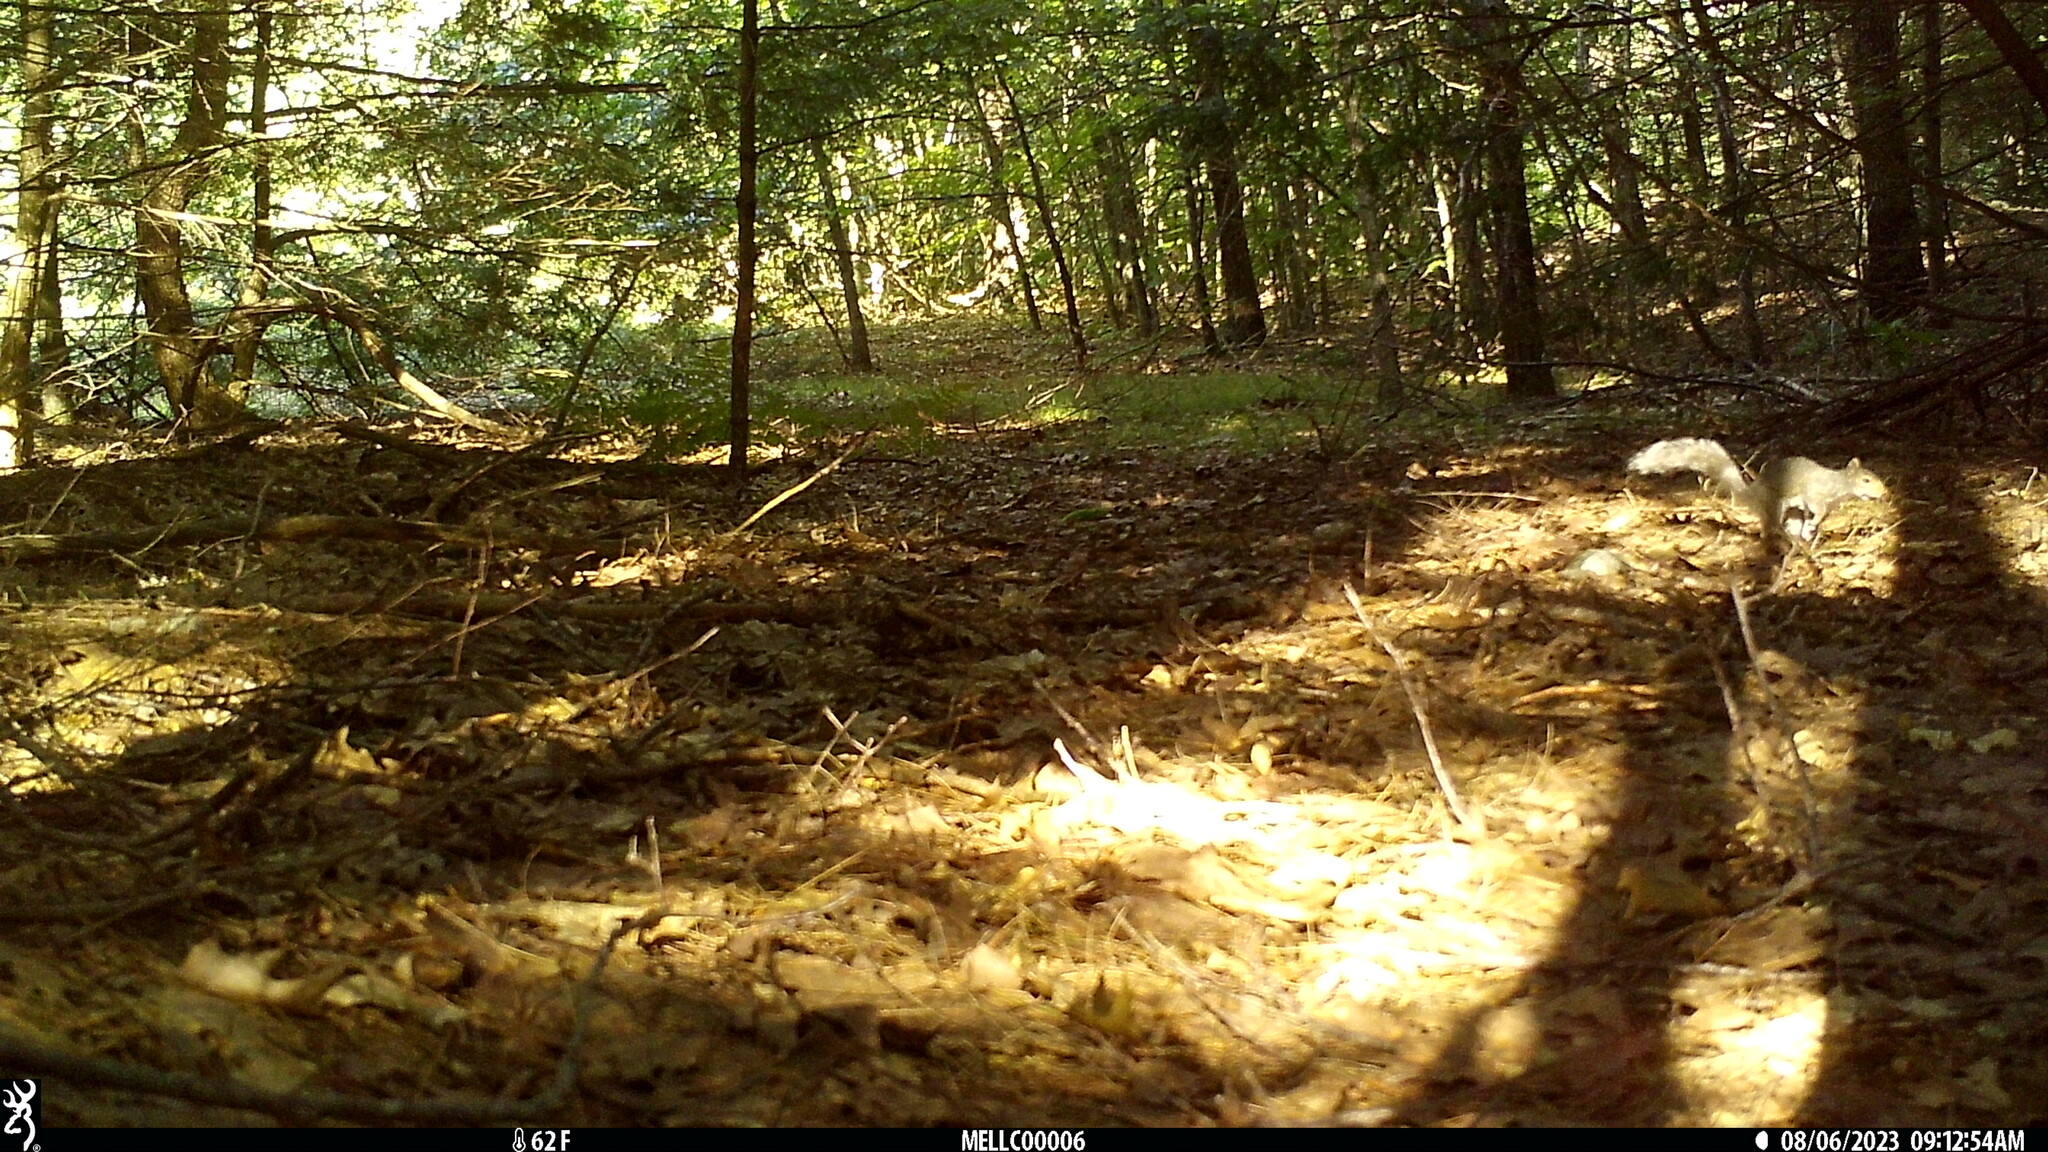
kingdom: Animalia
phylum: Chordata
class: Mammalia
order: Rodentia
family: Sciuridae
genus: Sciurus
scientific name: Sciurus carolinensis
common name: Eastern gray squirrel
